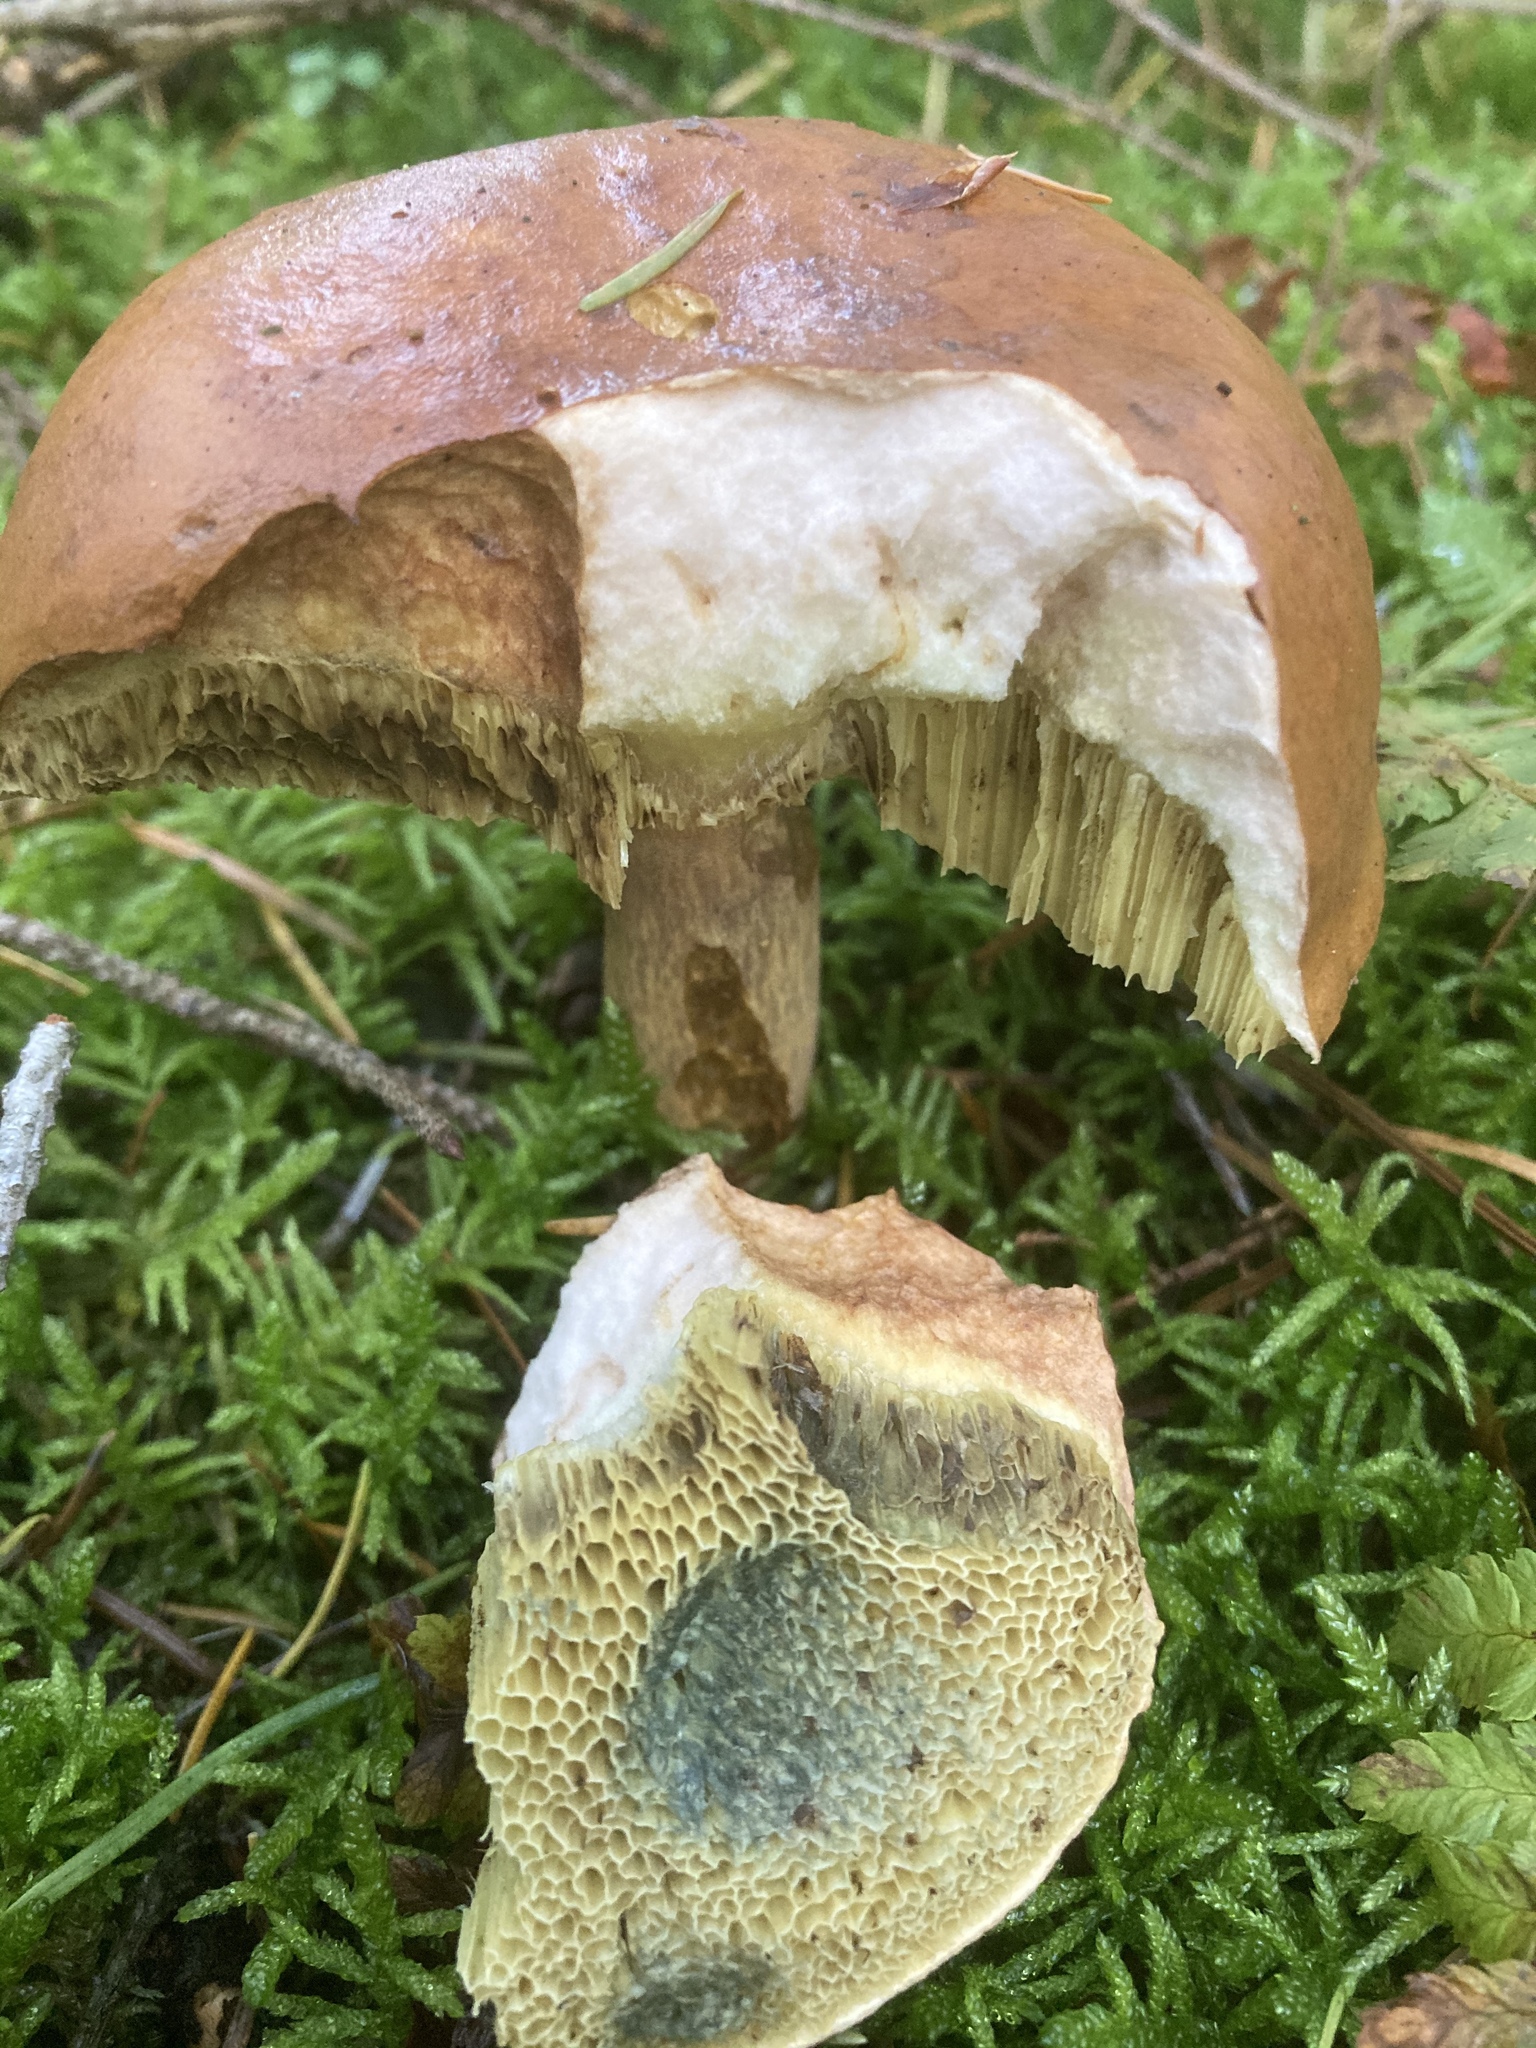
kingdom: Fungi
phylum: Basidiomycota
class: Agaricomycetes
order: Boletales
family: Boletaceae
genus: Imleria
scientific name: Imleria badia
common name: Bay bolete
